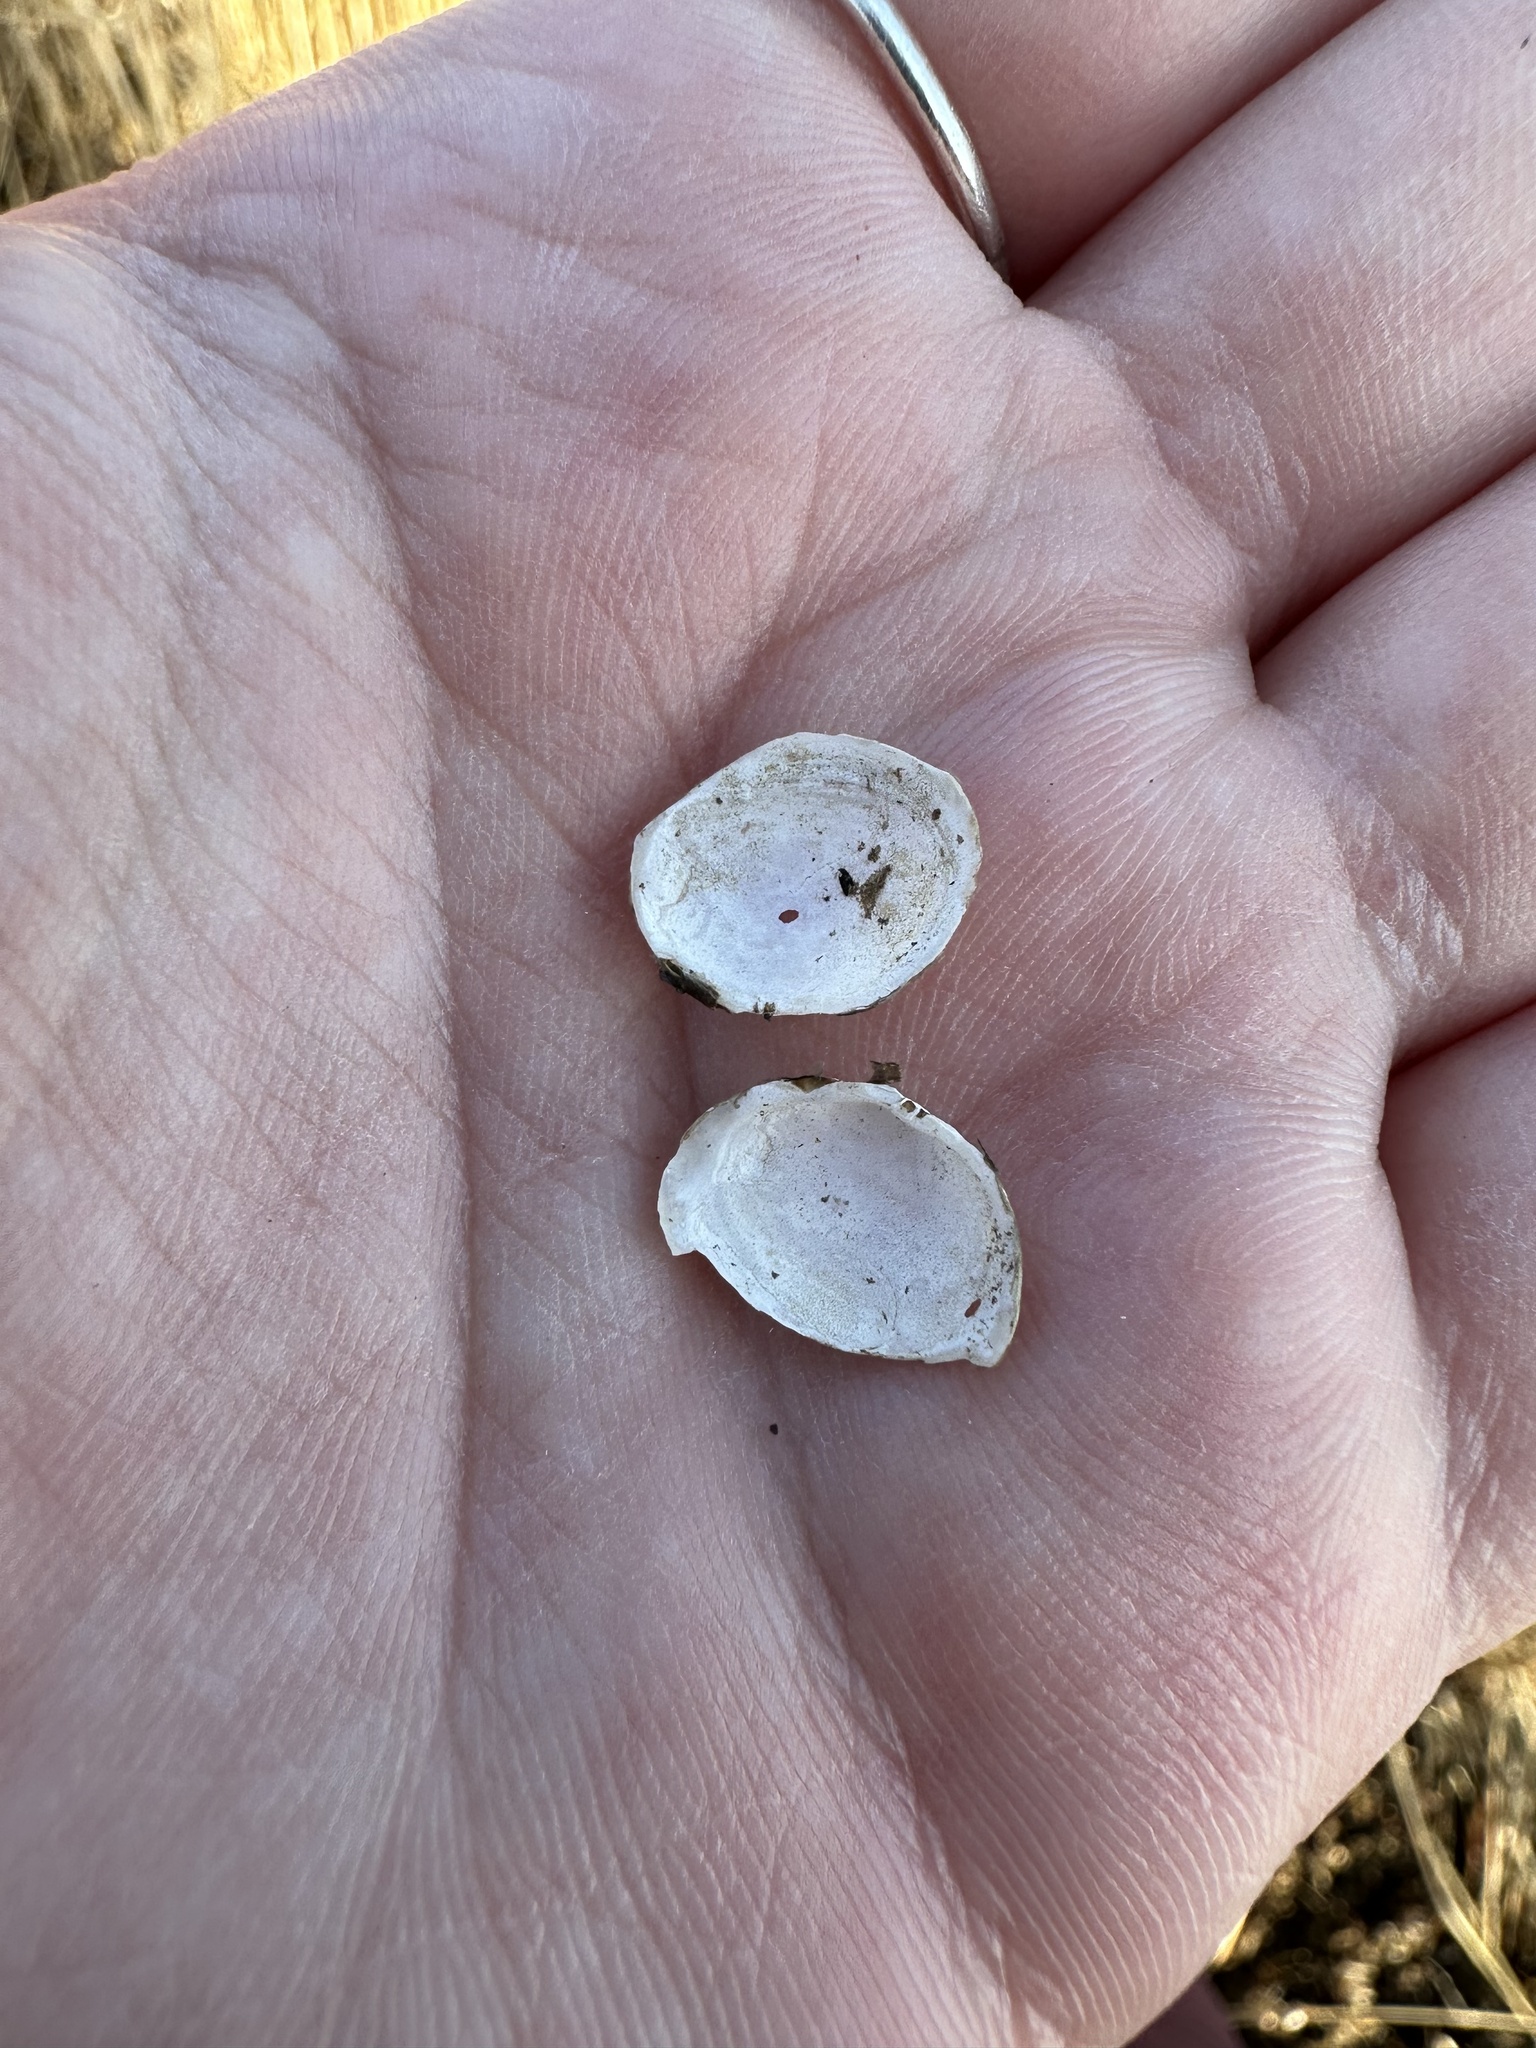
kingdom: Animalia
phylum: Mollusca
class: Bivalvia
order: Cardiida
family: Tellinidae
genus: Macoma
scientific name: Macoma petalum
